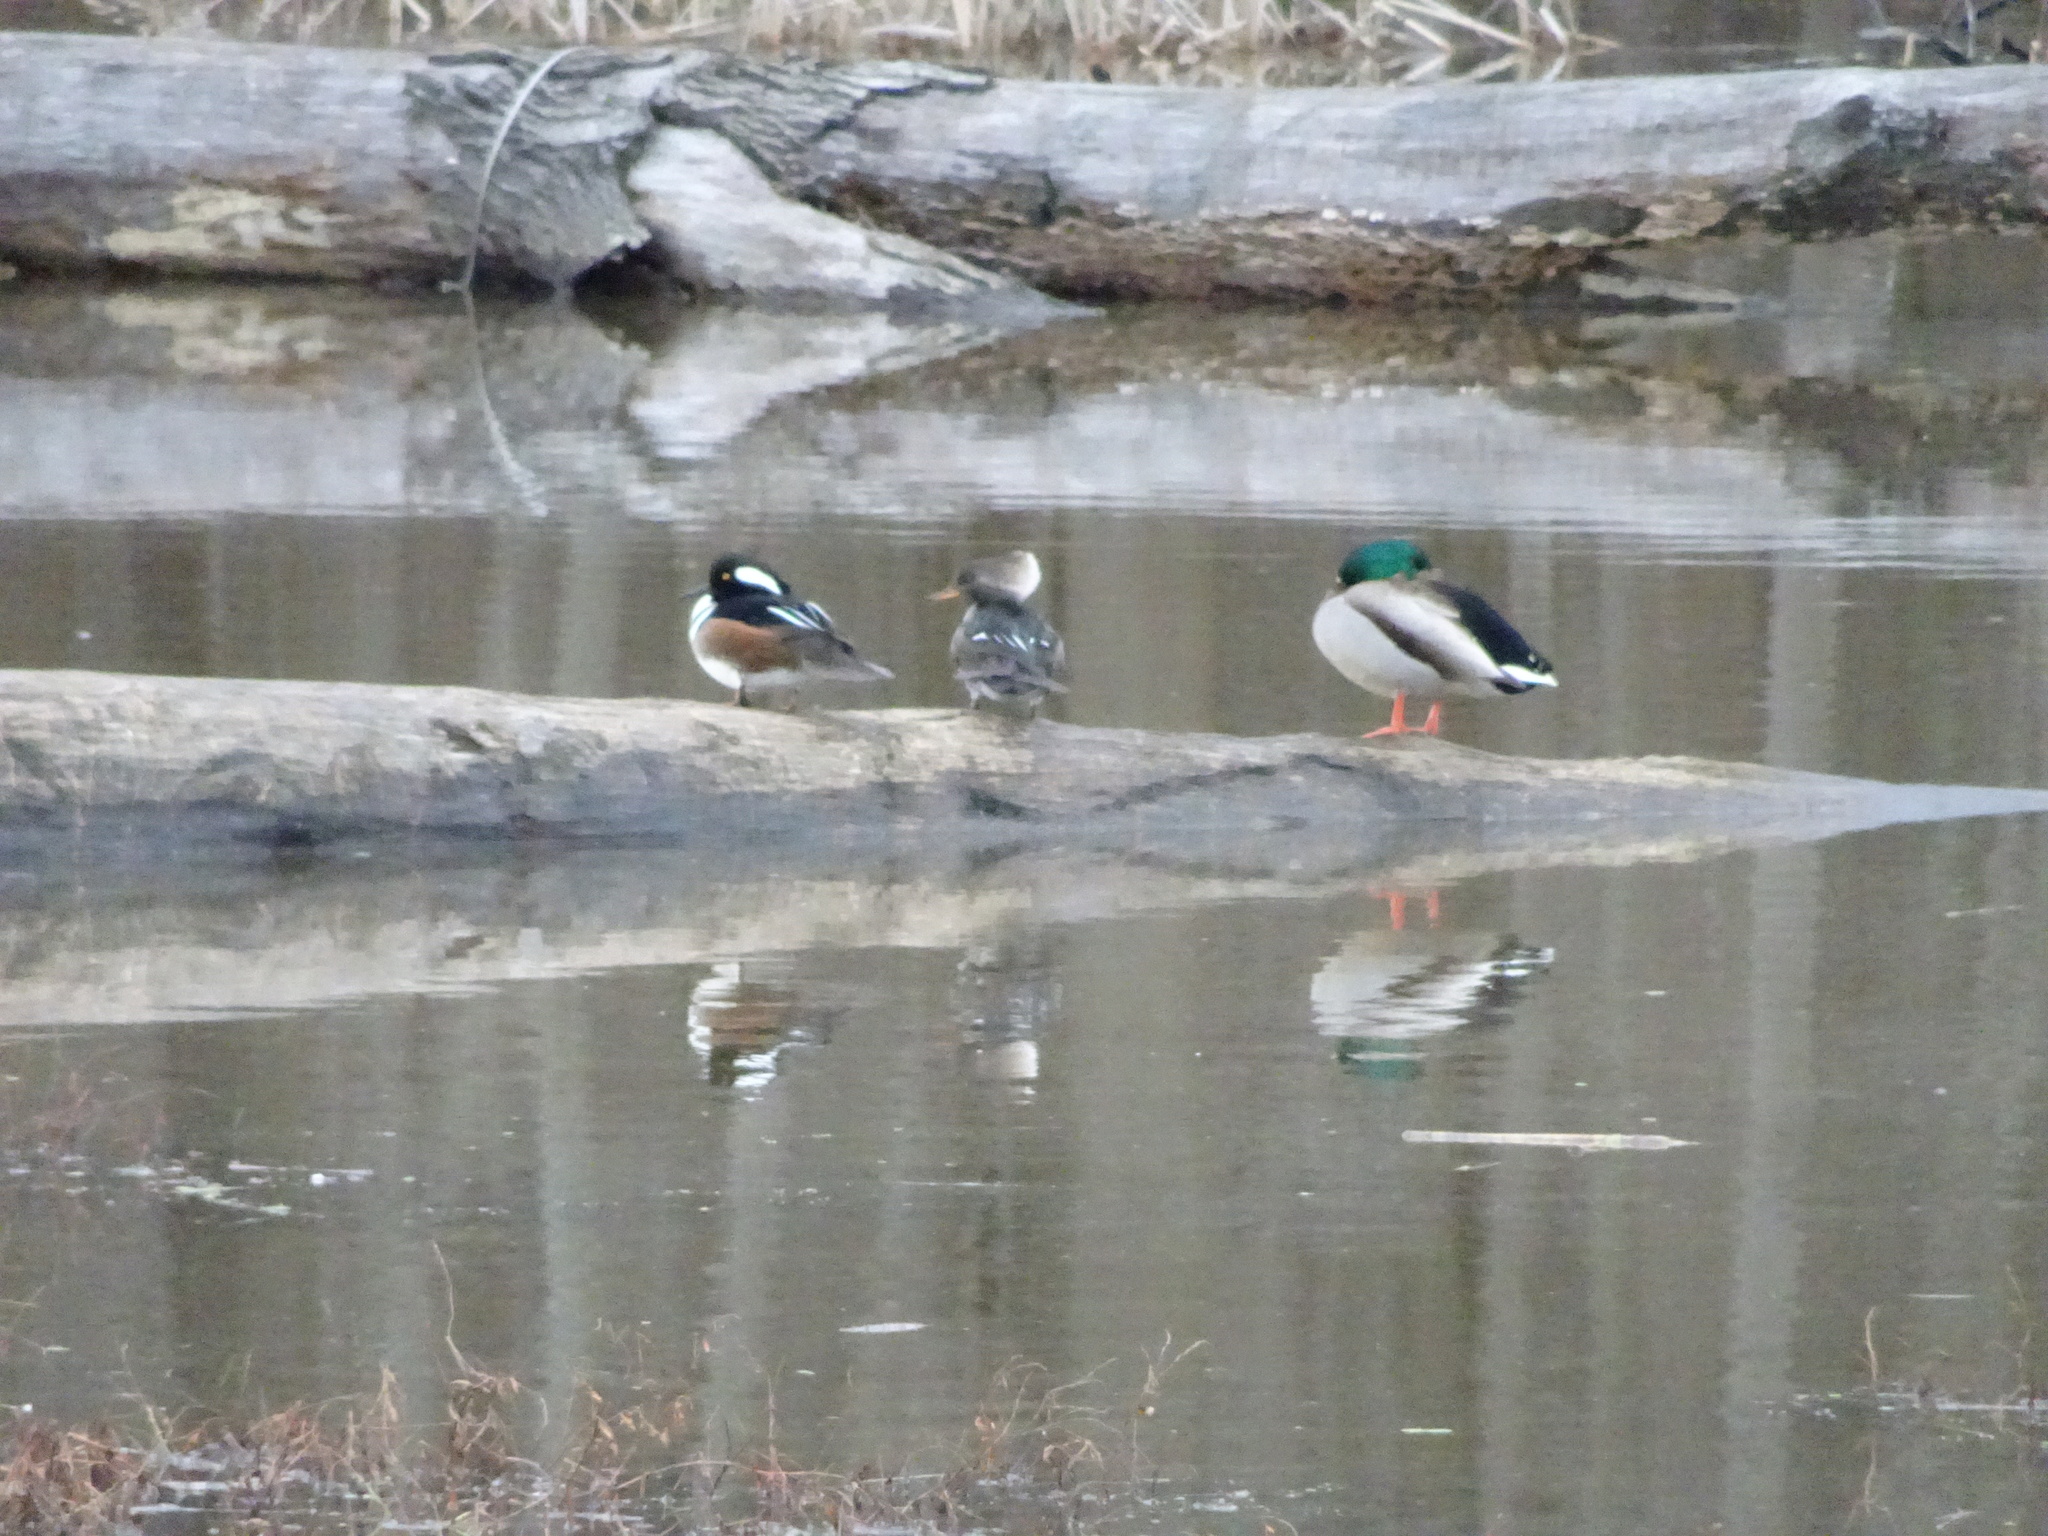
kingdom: Animalia
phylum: Chordata
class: Aves
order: Anseriformes
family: Anatidae
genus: Lophodytes
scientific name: Lophodytes cucullatus
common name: Hooded merganser
